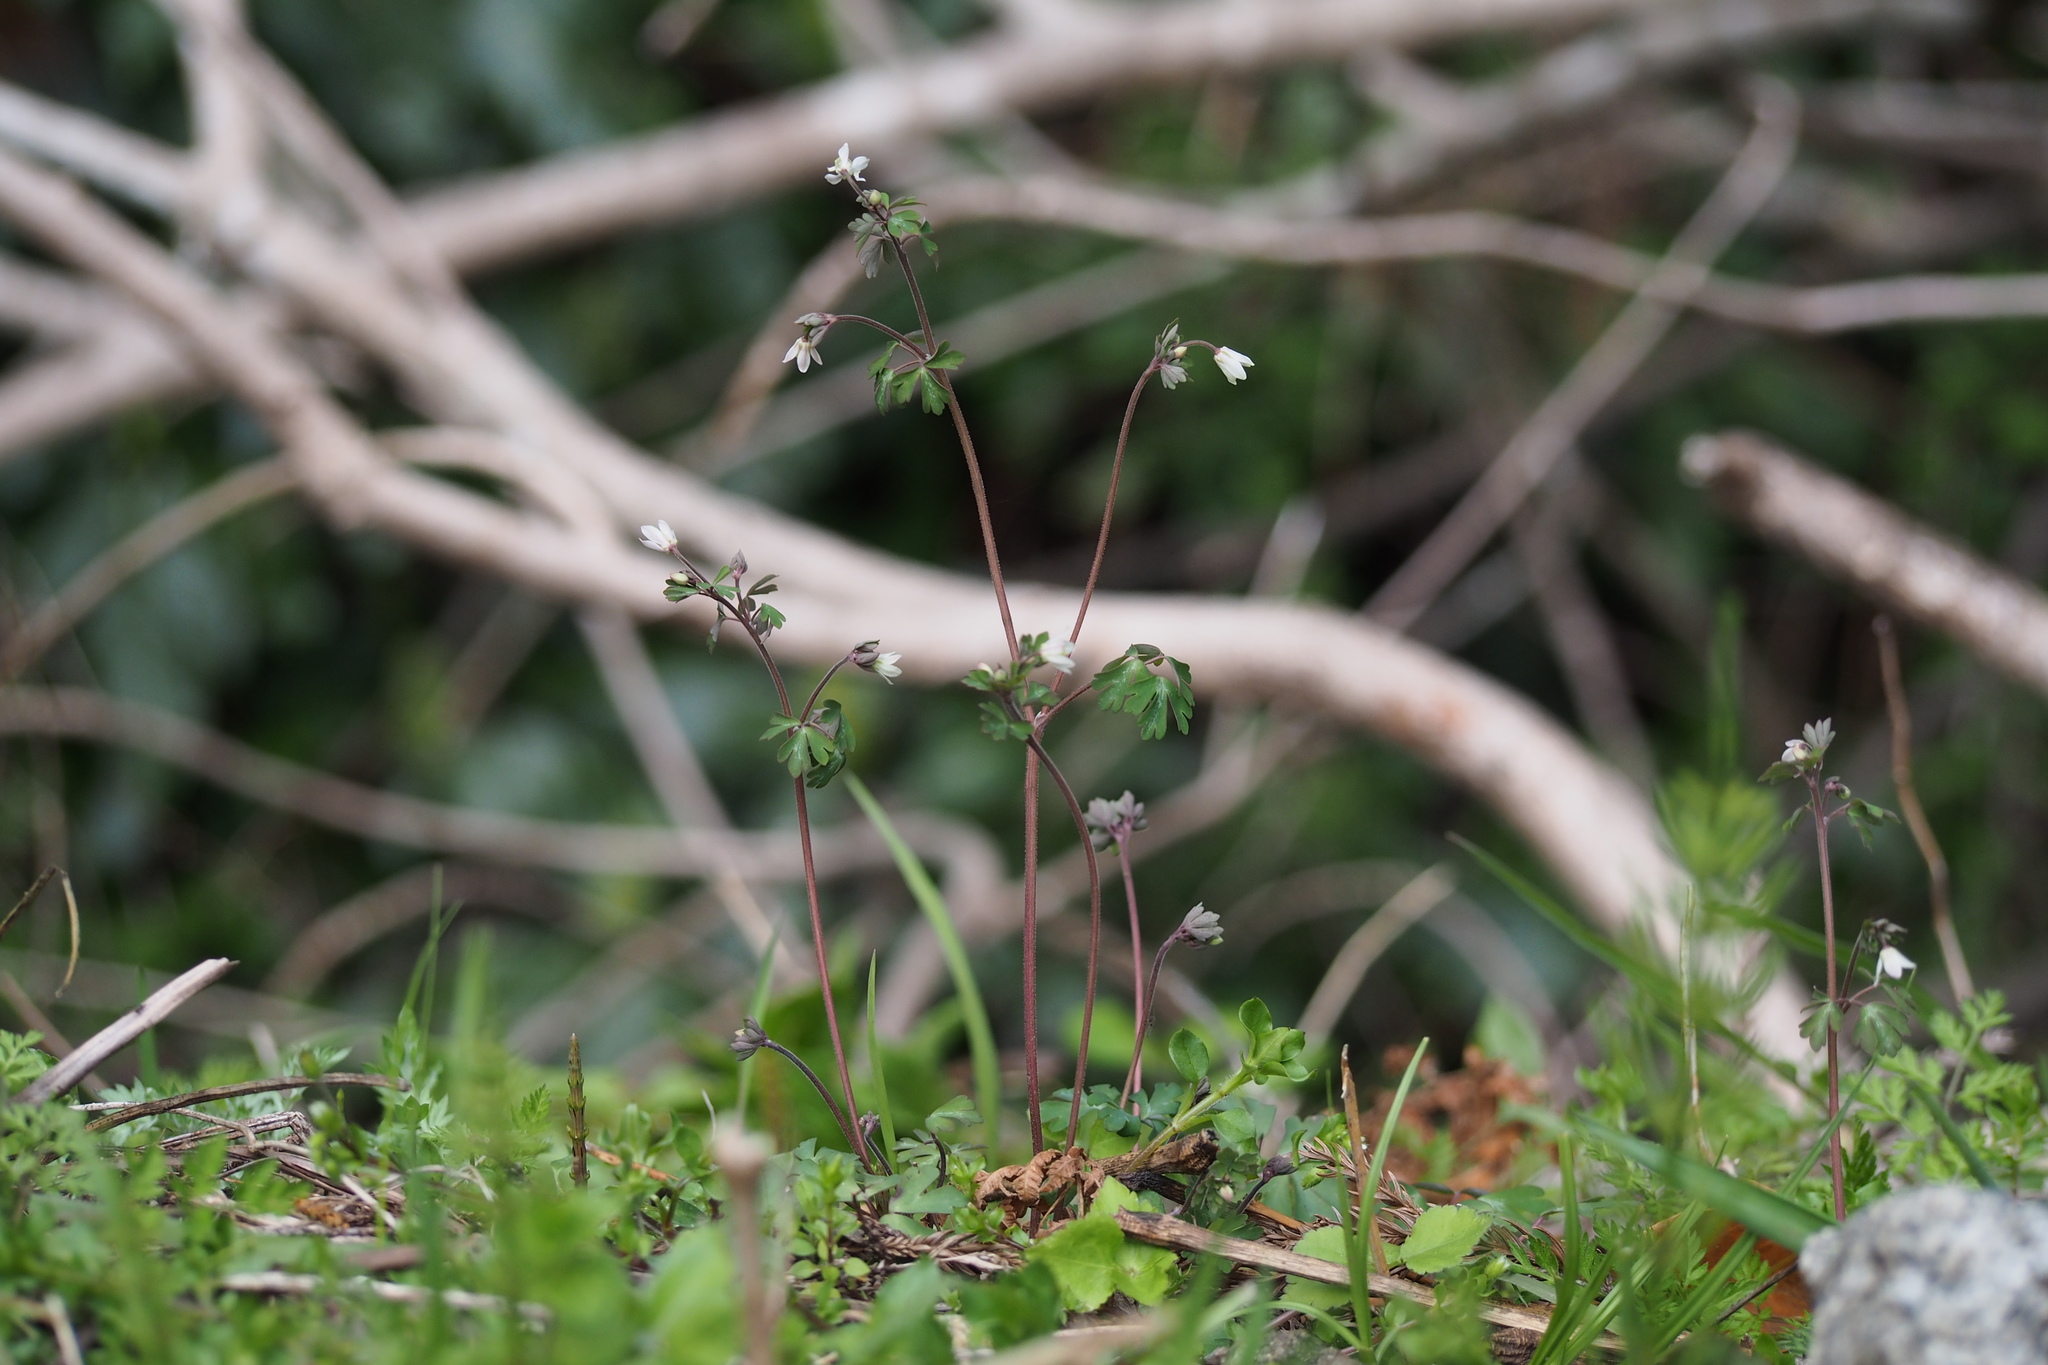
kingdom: Plantae
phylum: Tracheophyta
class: Magnoliopsida
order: Ranunculales
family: Ranunculaceae
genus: Semiaquilegia
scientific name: Semiaquilegia adoxoides
